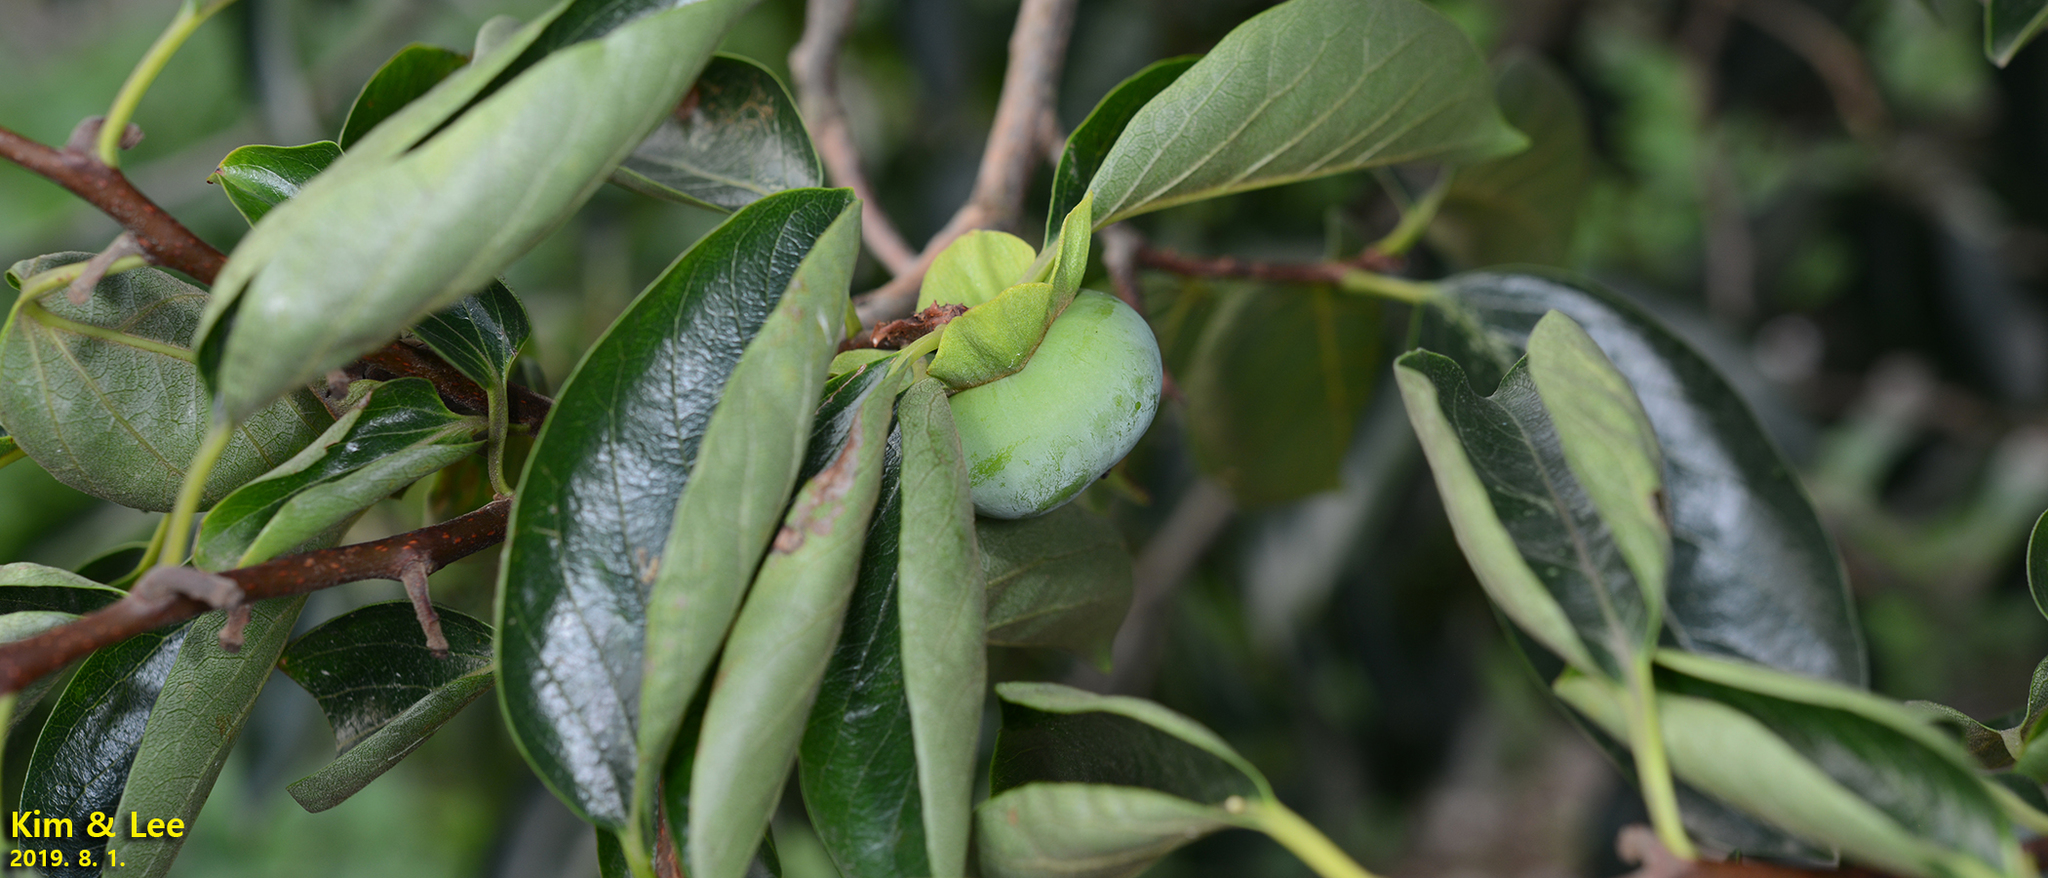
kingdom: Plantae
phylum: Tracheophyta
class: Magnoliopsida
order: Ericales
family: Ebenaceae
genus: Diospyros
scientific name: Diospyros kaki
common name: Persimmon
